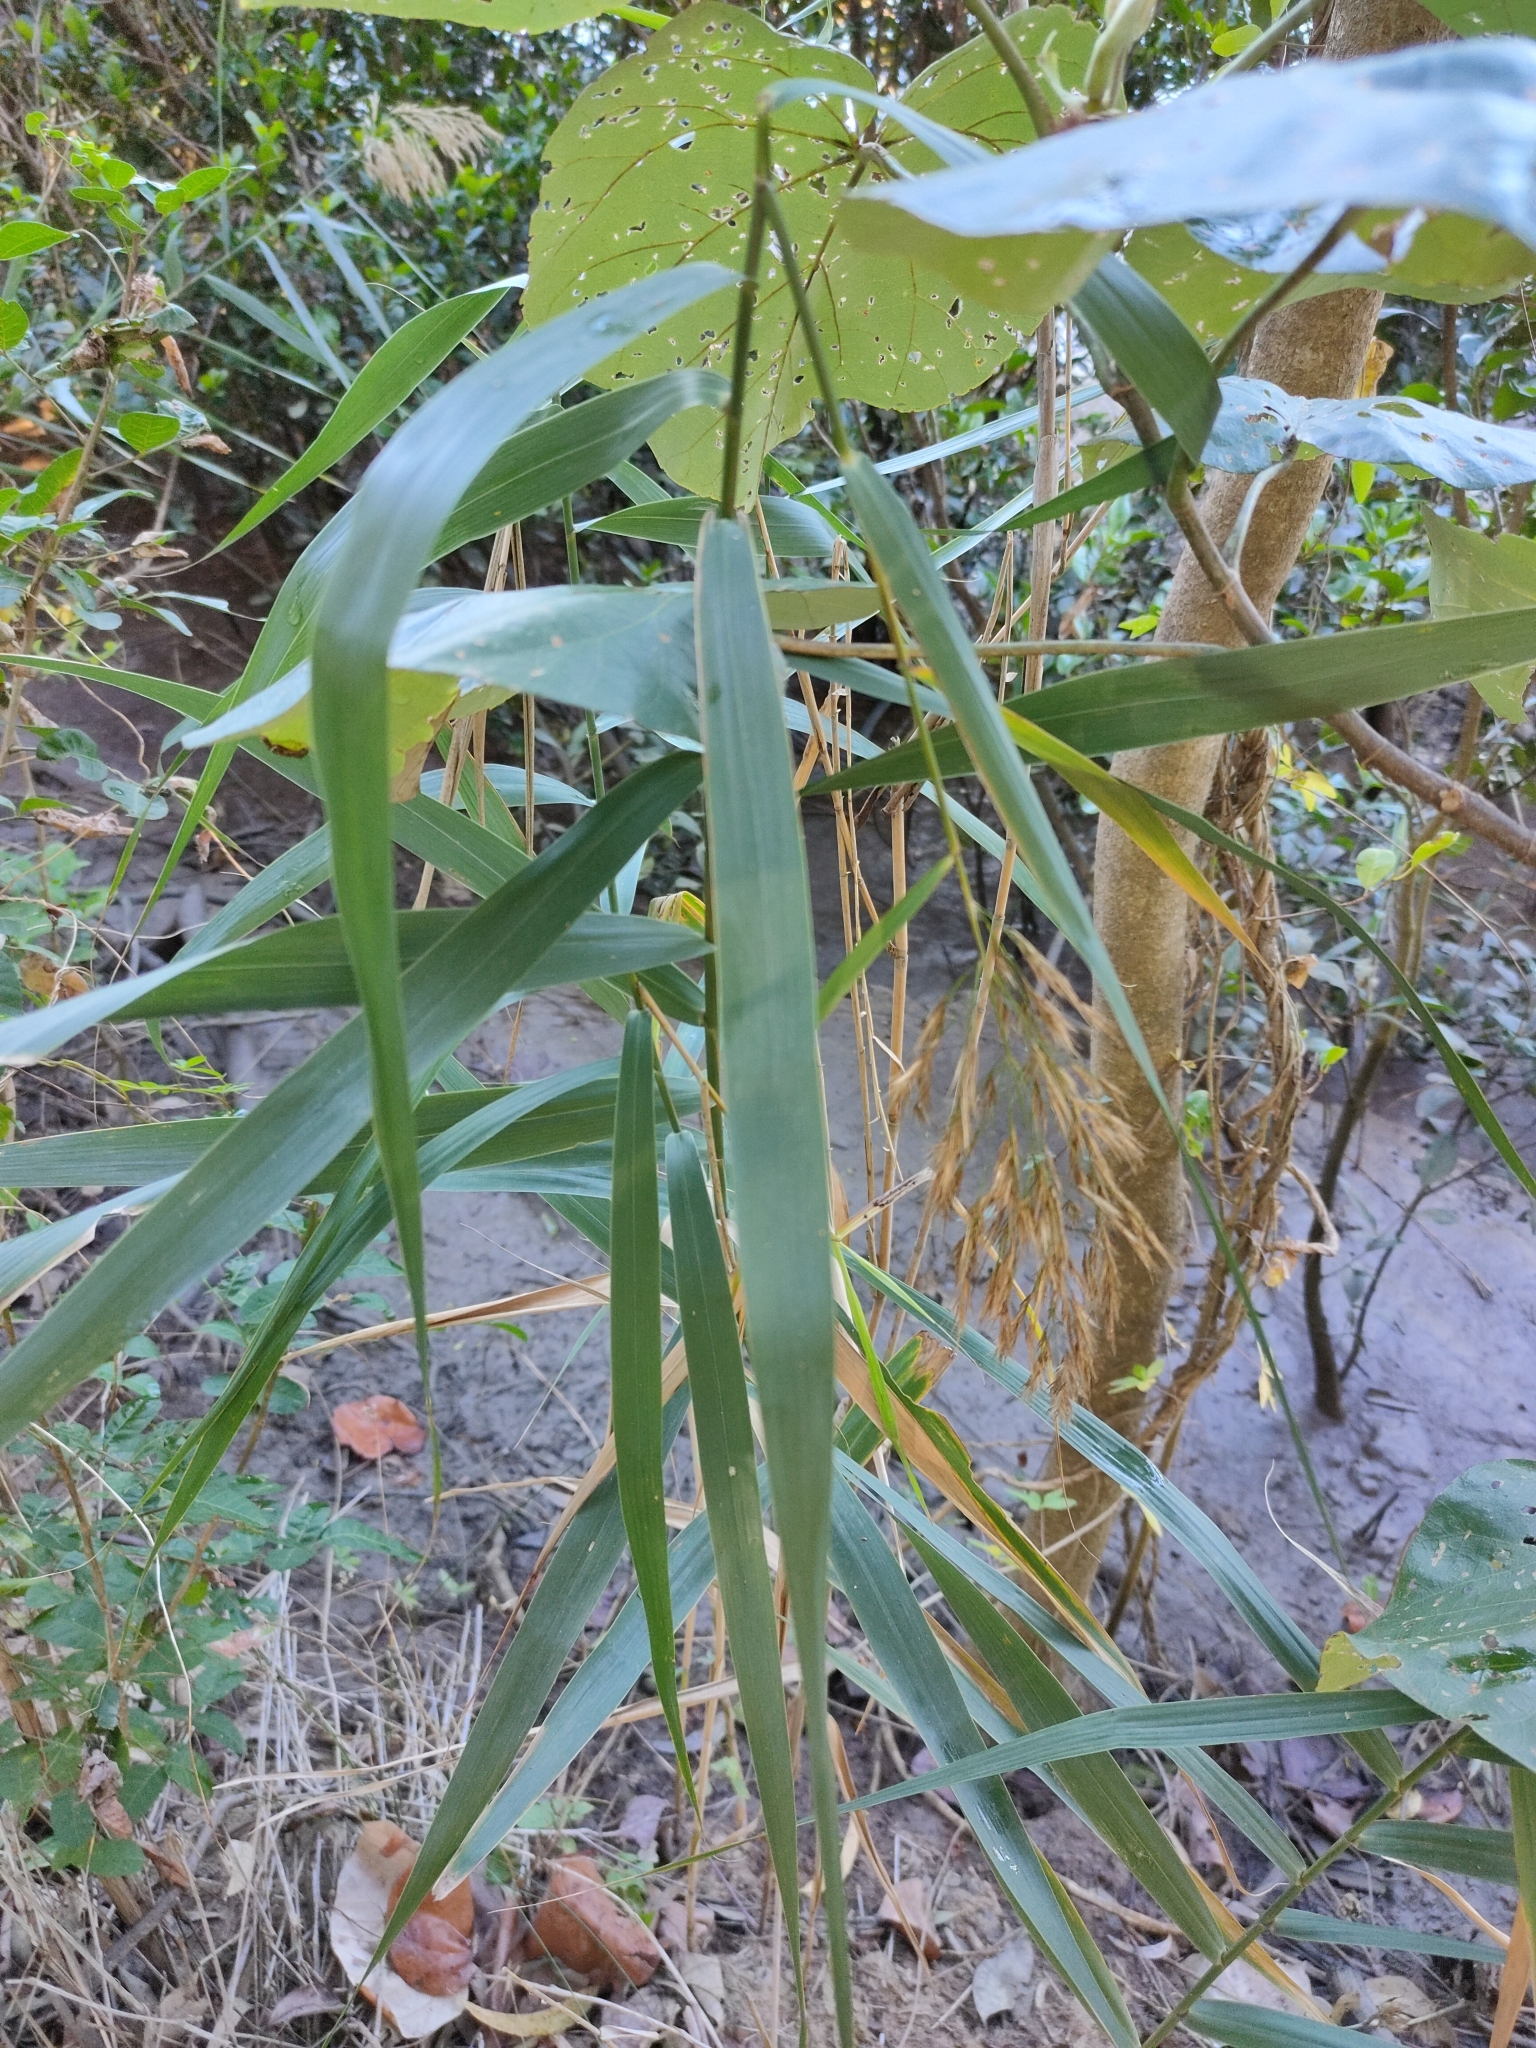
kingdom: Plantae
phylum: Tracheophyta
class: Liliopsida
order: Poales
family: Poaceae
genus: Phragmites
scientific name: Phragmites australis
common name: Common reed
